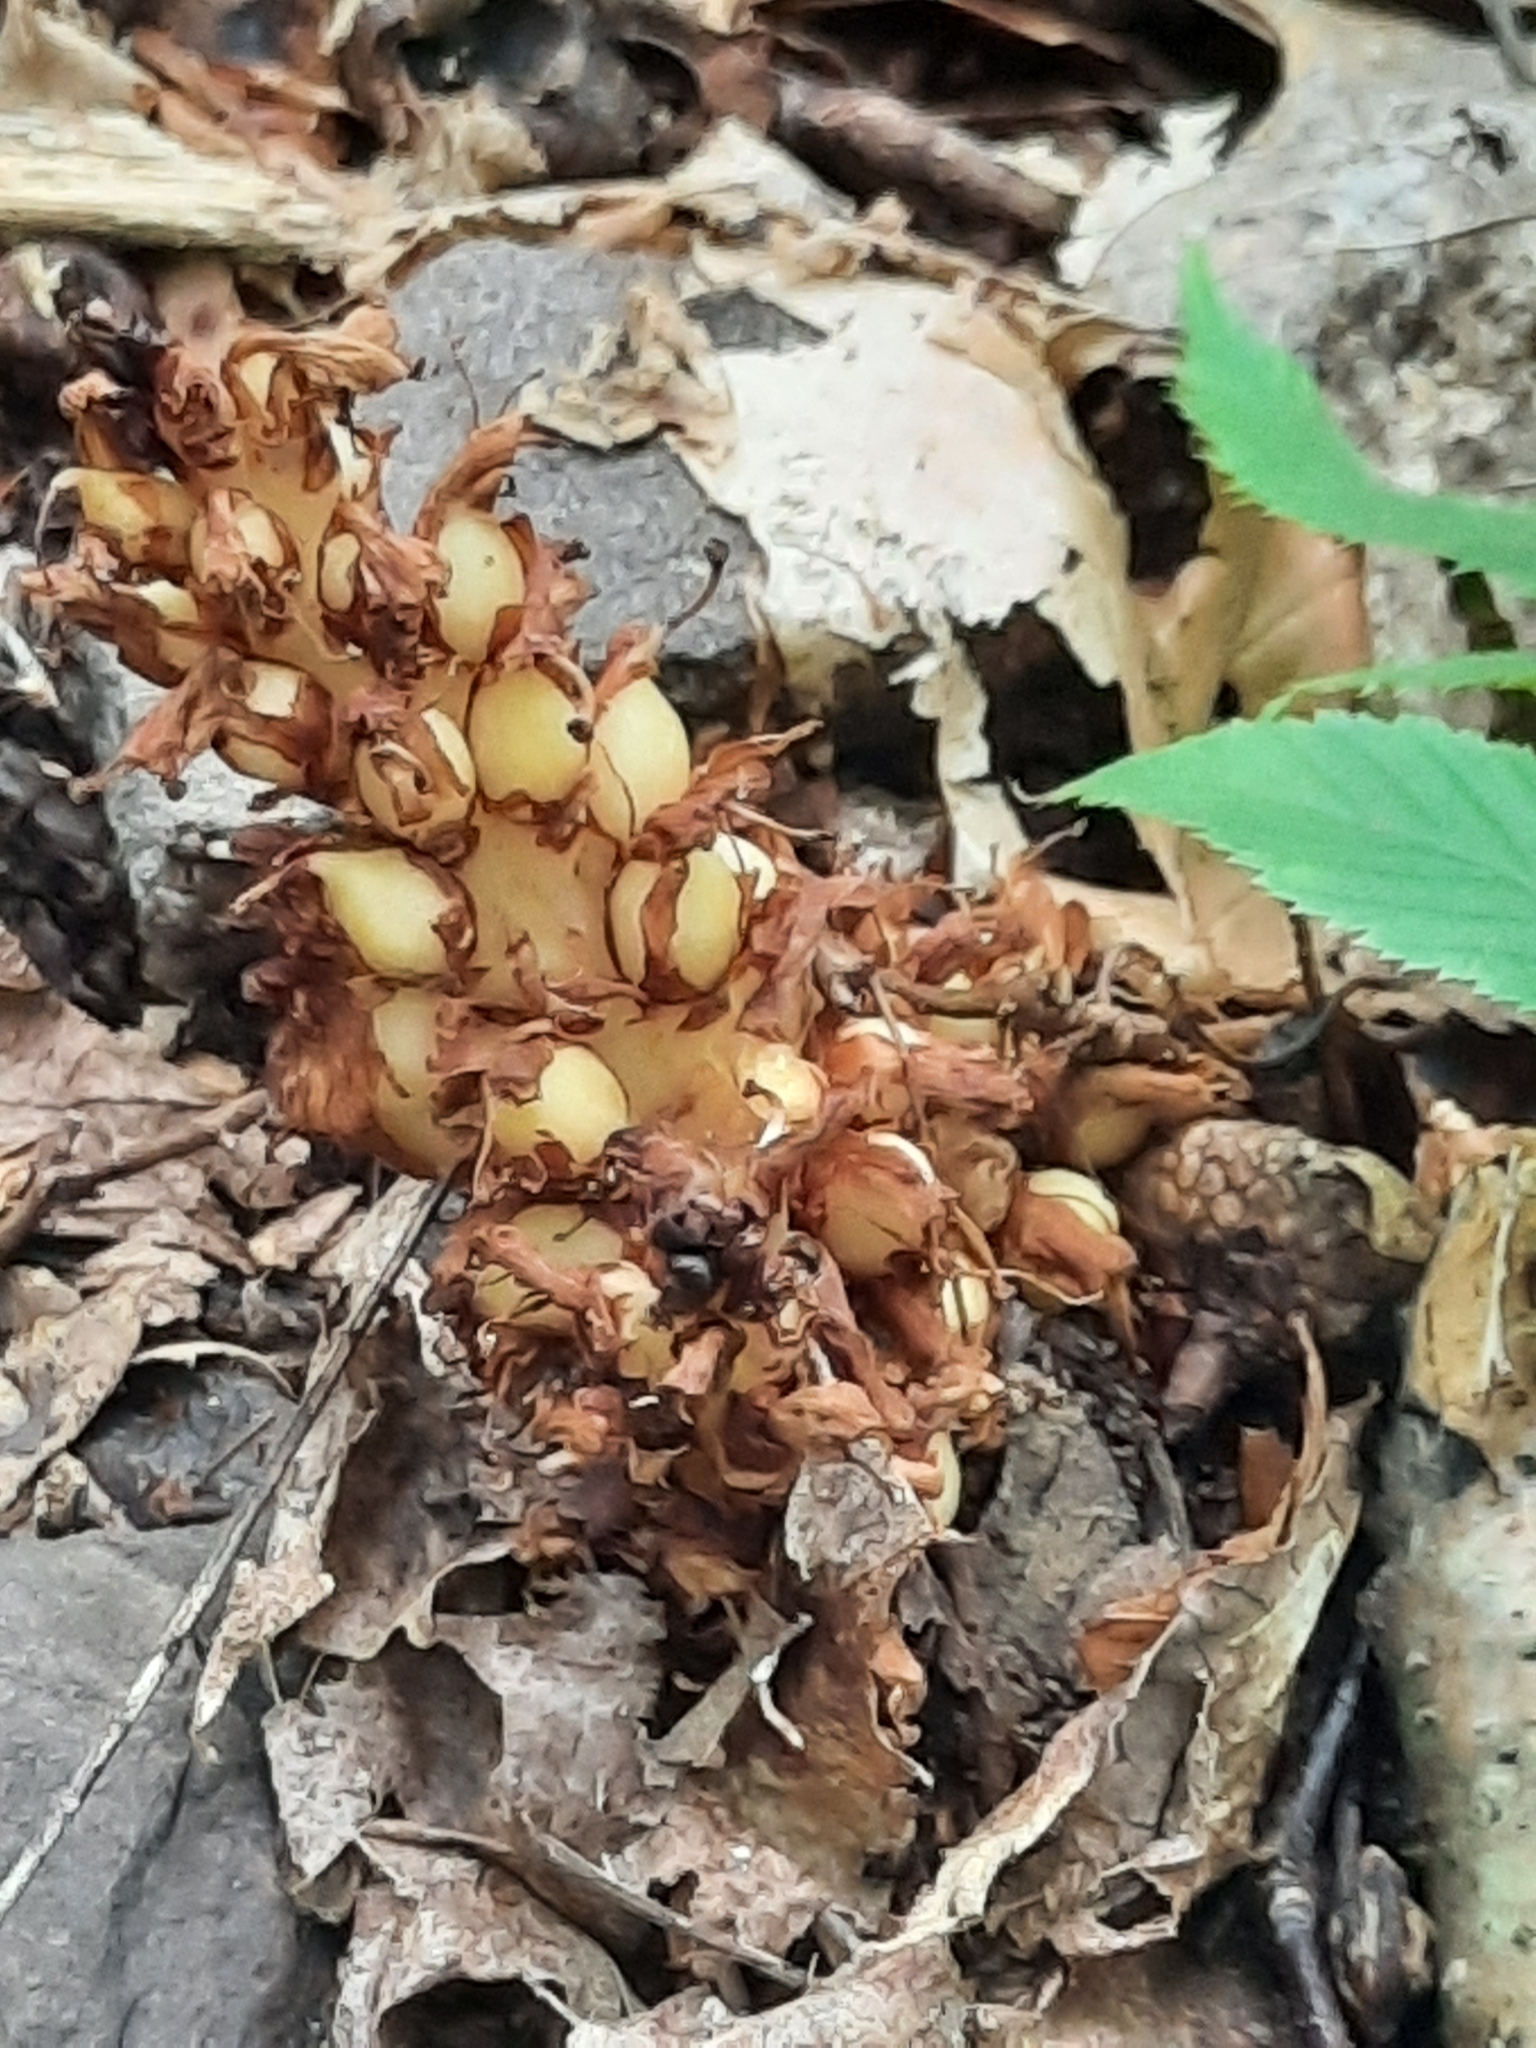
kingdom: Plantae
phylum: Tracheophyta
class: Magnoliopsida
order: Lamiales
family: Orobanchaceae
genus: Conopholis
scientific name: Conopholis americana
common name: American cancer-root
